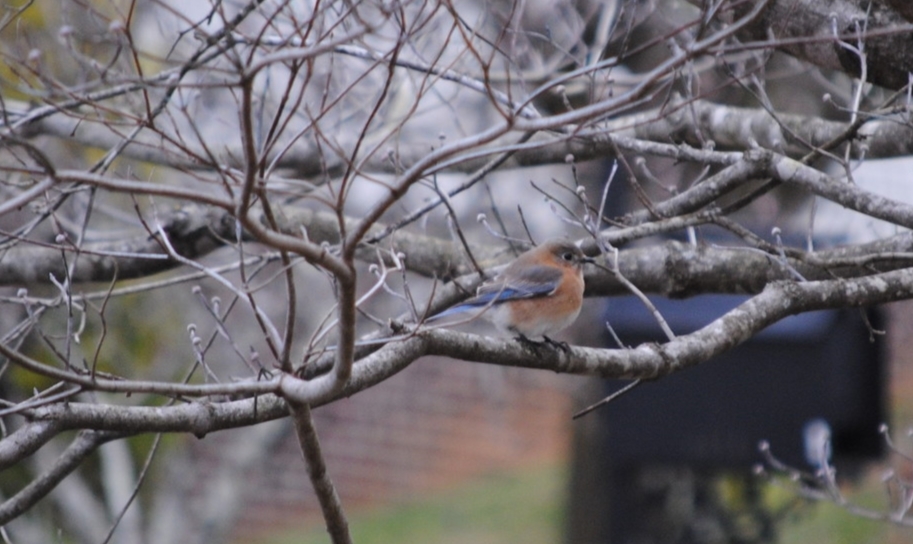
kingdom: Animalia
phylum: Chordata
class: Aves
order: Passeriformes
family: Turdidae
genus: Sialia
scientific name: Sialia sialis
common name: Eastern bluebird
